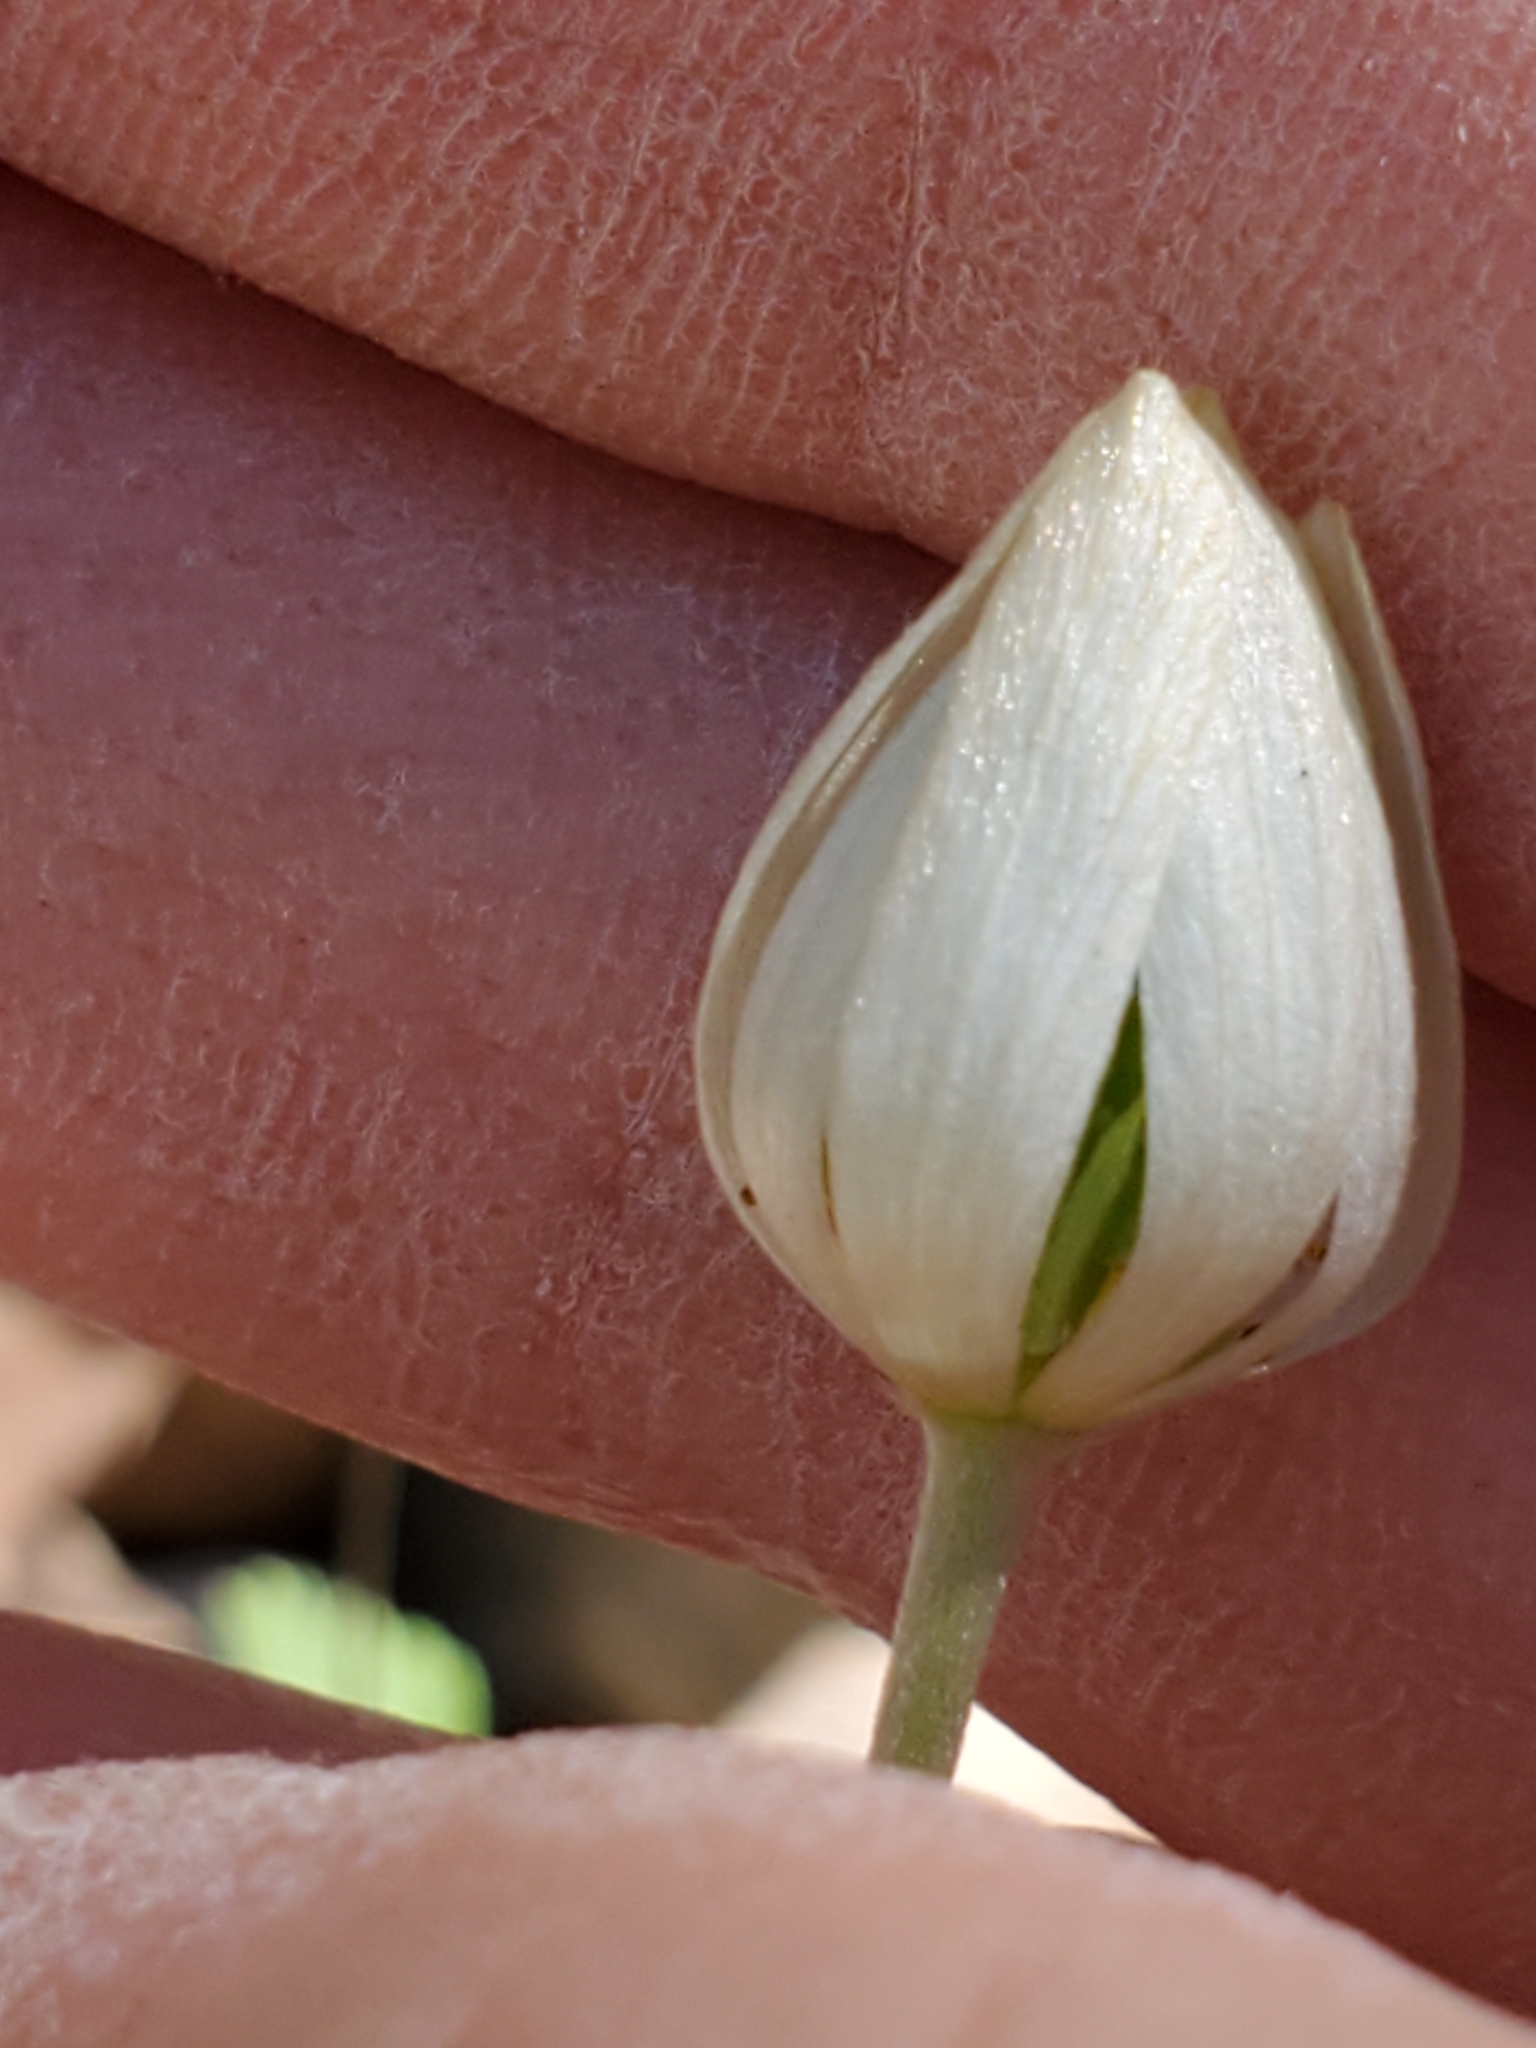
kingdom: Plantae
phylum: Tracheophyta
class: Magnoliopsida
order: Ranunculales
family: Ranunculaceae
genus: Anemone
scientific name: Anemone edwardsiana
